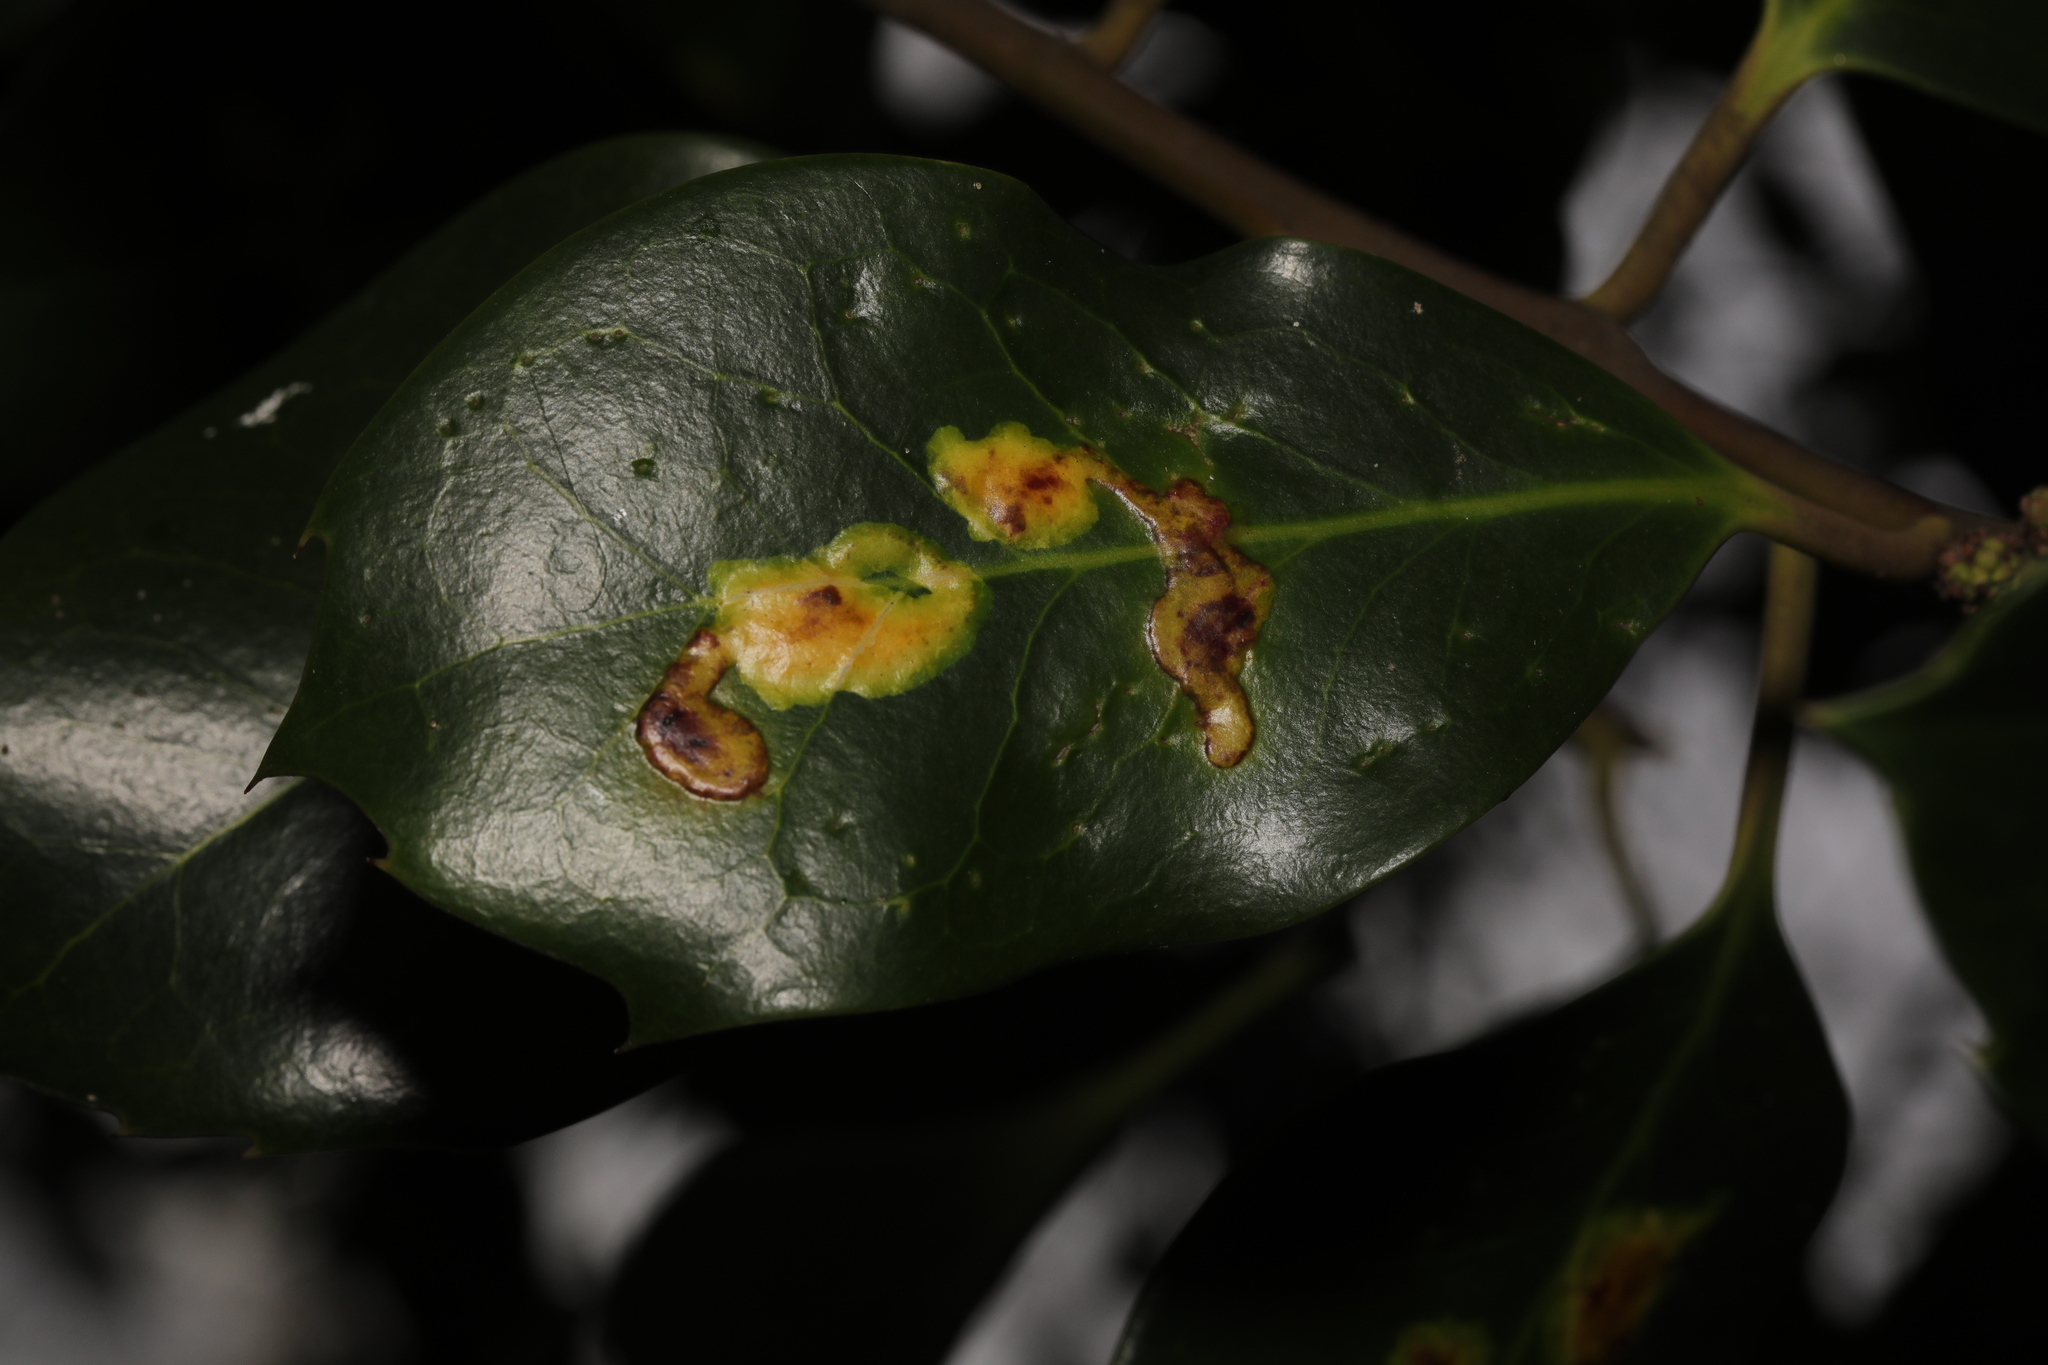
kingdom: Animalia
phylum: Arthropoda
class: Insecta
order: Diptera
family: Agromyzidae
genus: Phytomyza
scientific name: Phytomyza ilicis
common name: Holly leafminer
